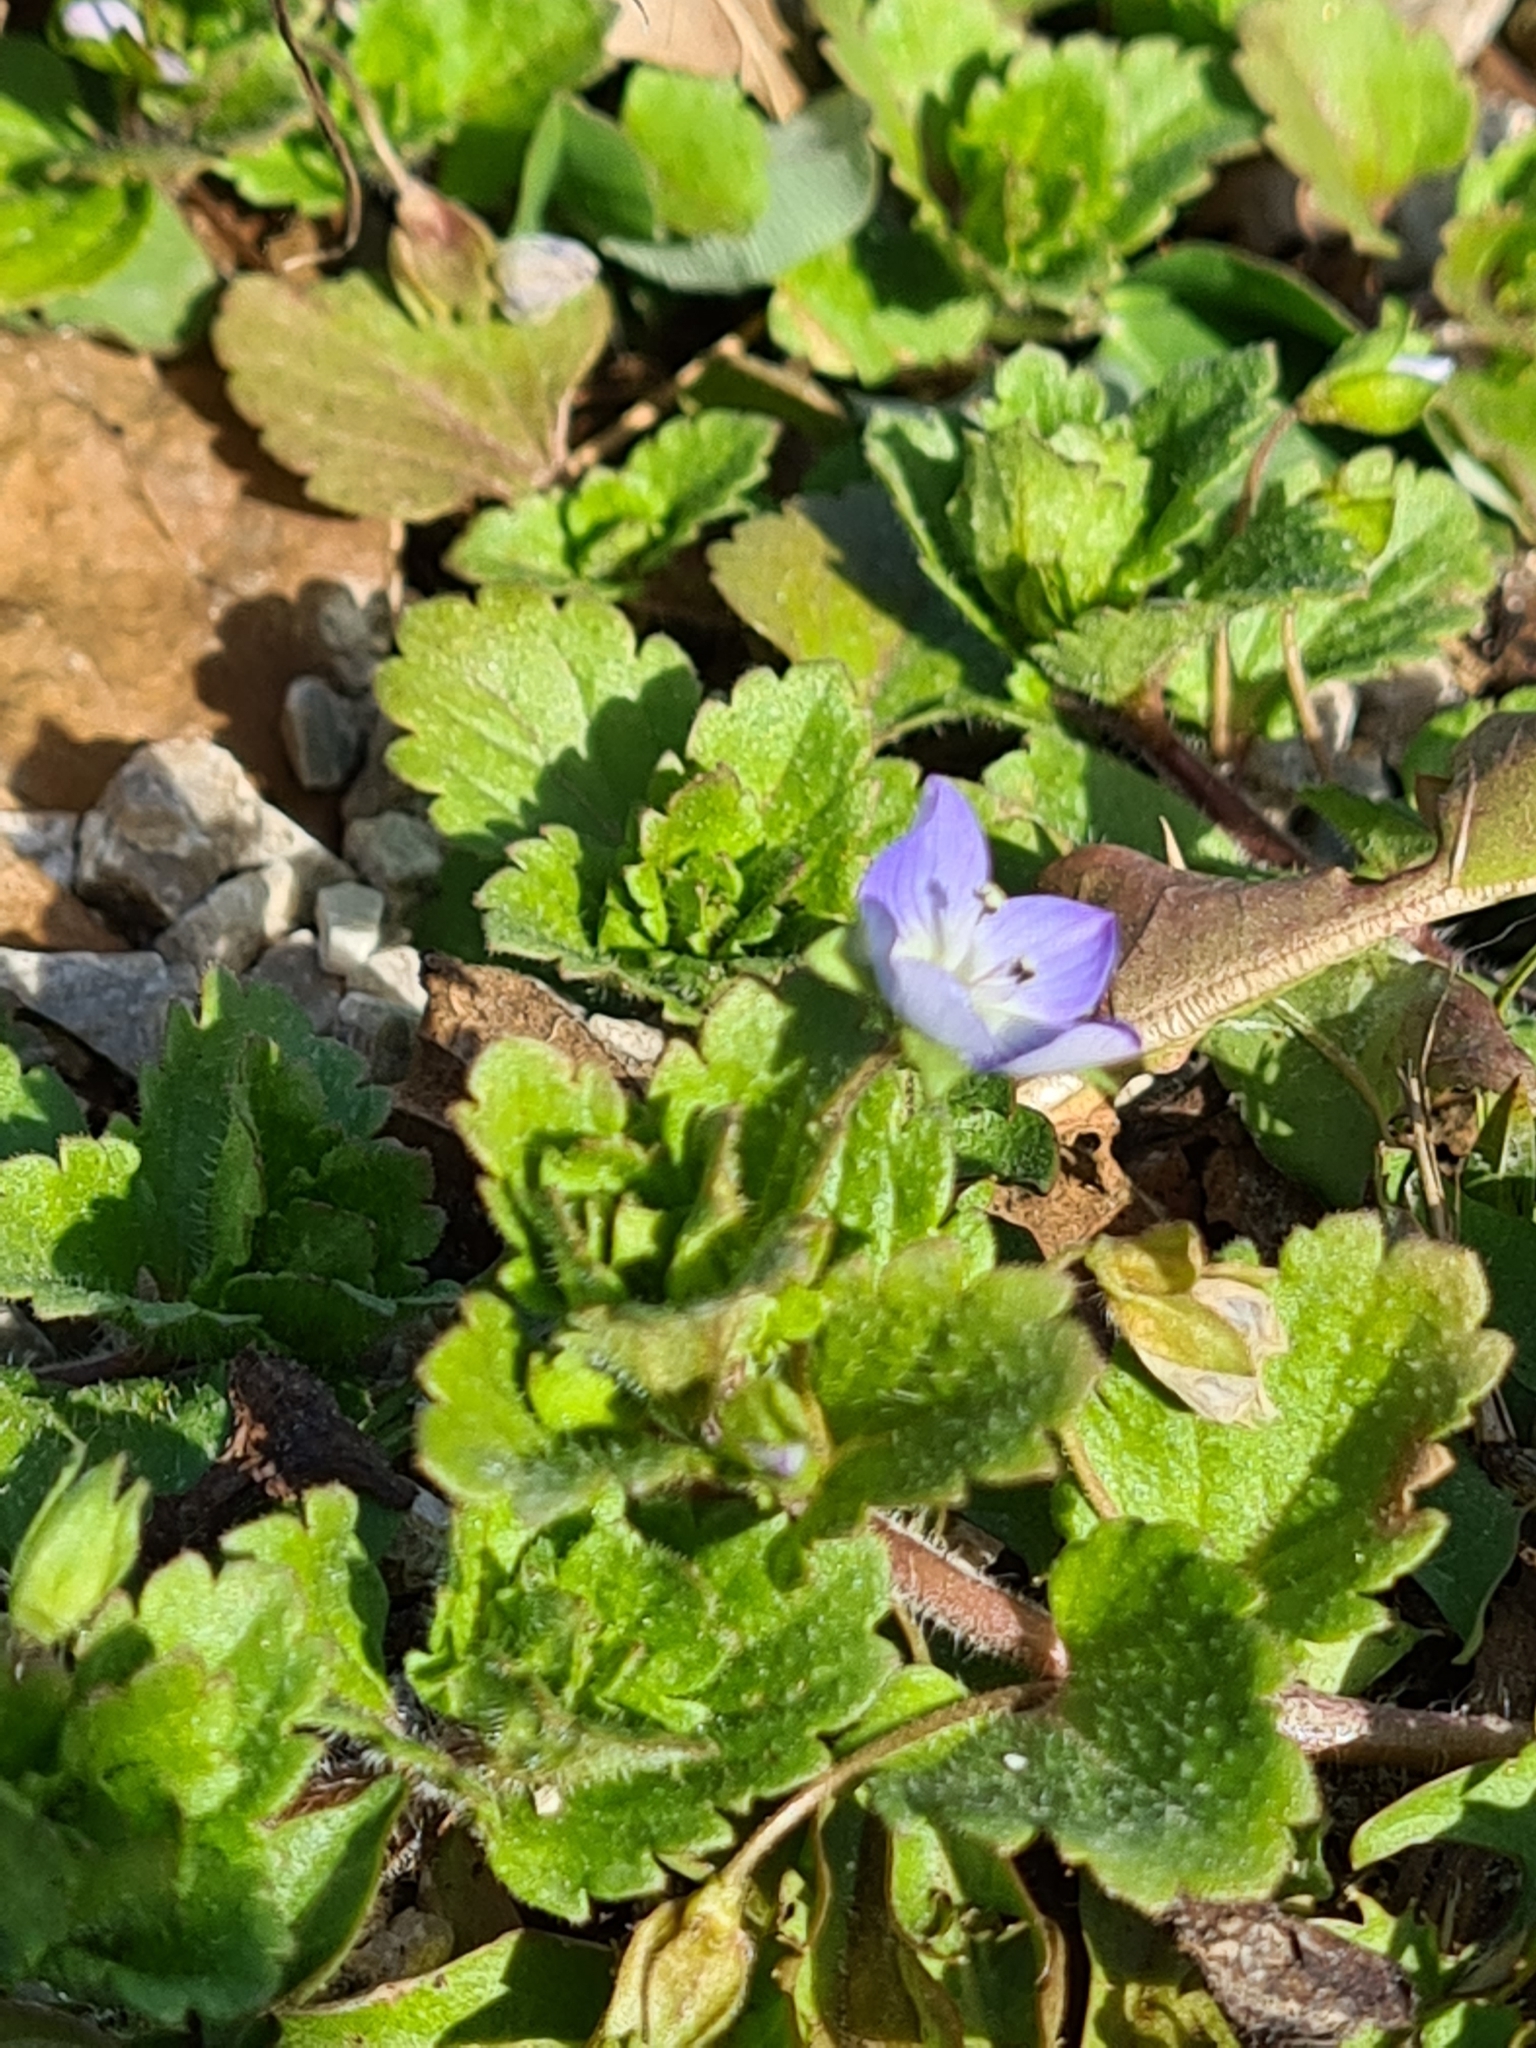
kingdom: Plantae
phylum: Tracheophyta
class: Magnoliopsida
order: Lamiales
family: Plantaginaceae
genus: Veronica
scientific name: Veronica persica
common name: Common field-speedwell
